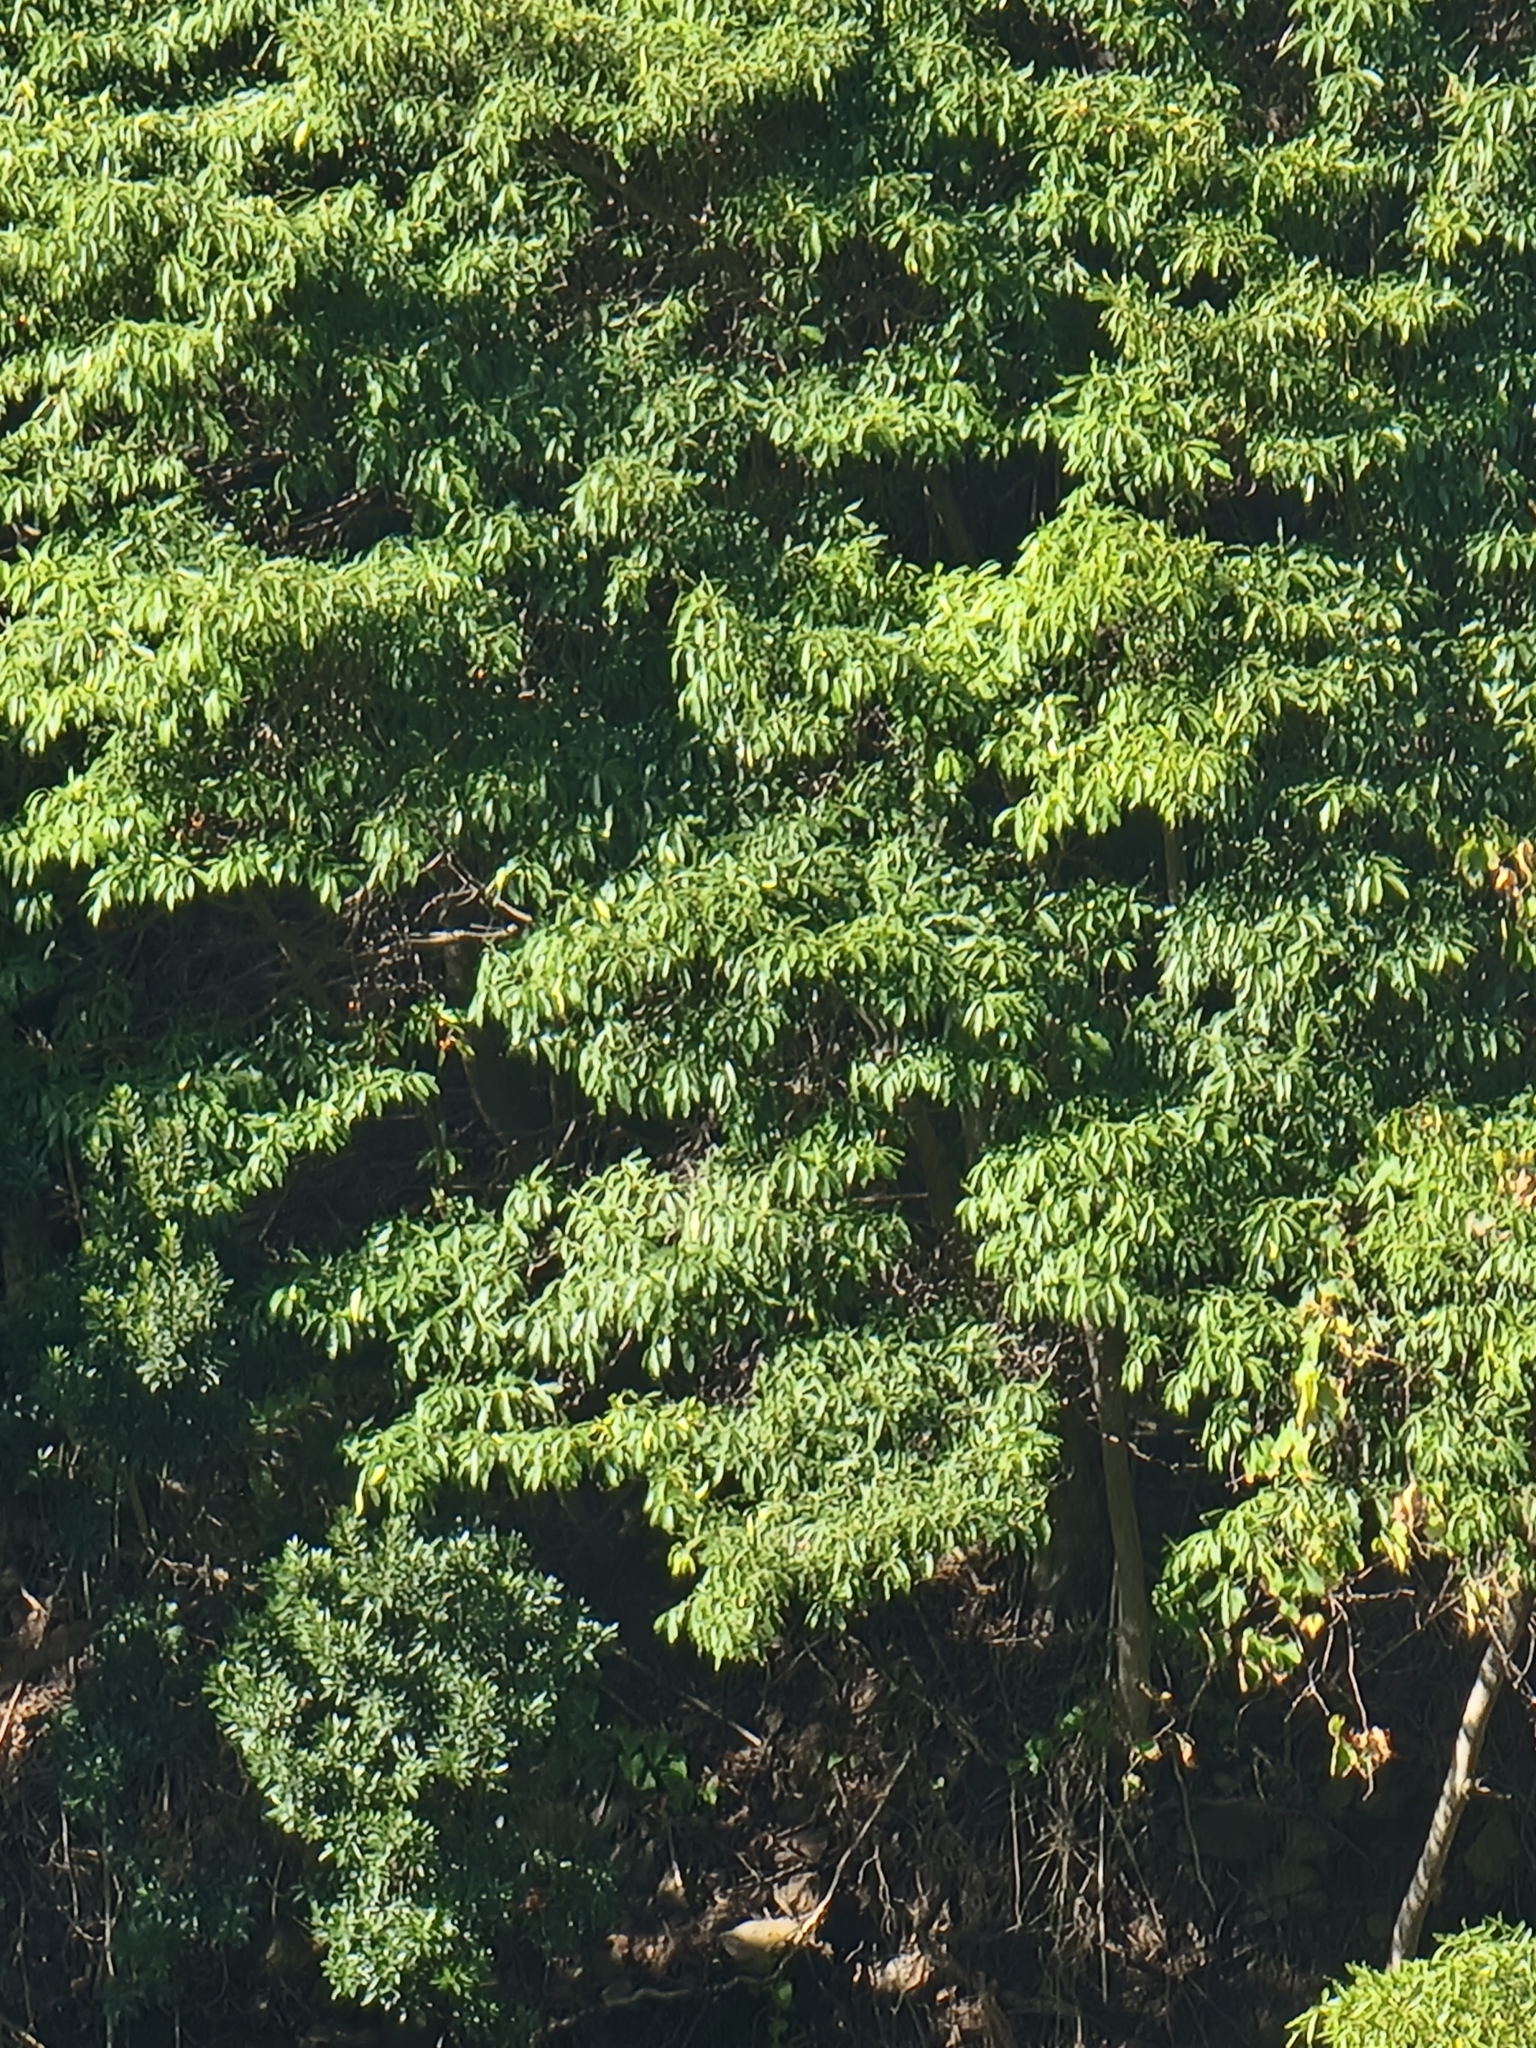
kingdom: Plantae
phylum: Tracheophyta
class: Magnoliopsida
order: Apiales
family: Pittosporaceae
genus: Pittosporum
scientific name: Pittosporum undulatum
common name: Australian cheesewood
